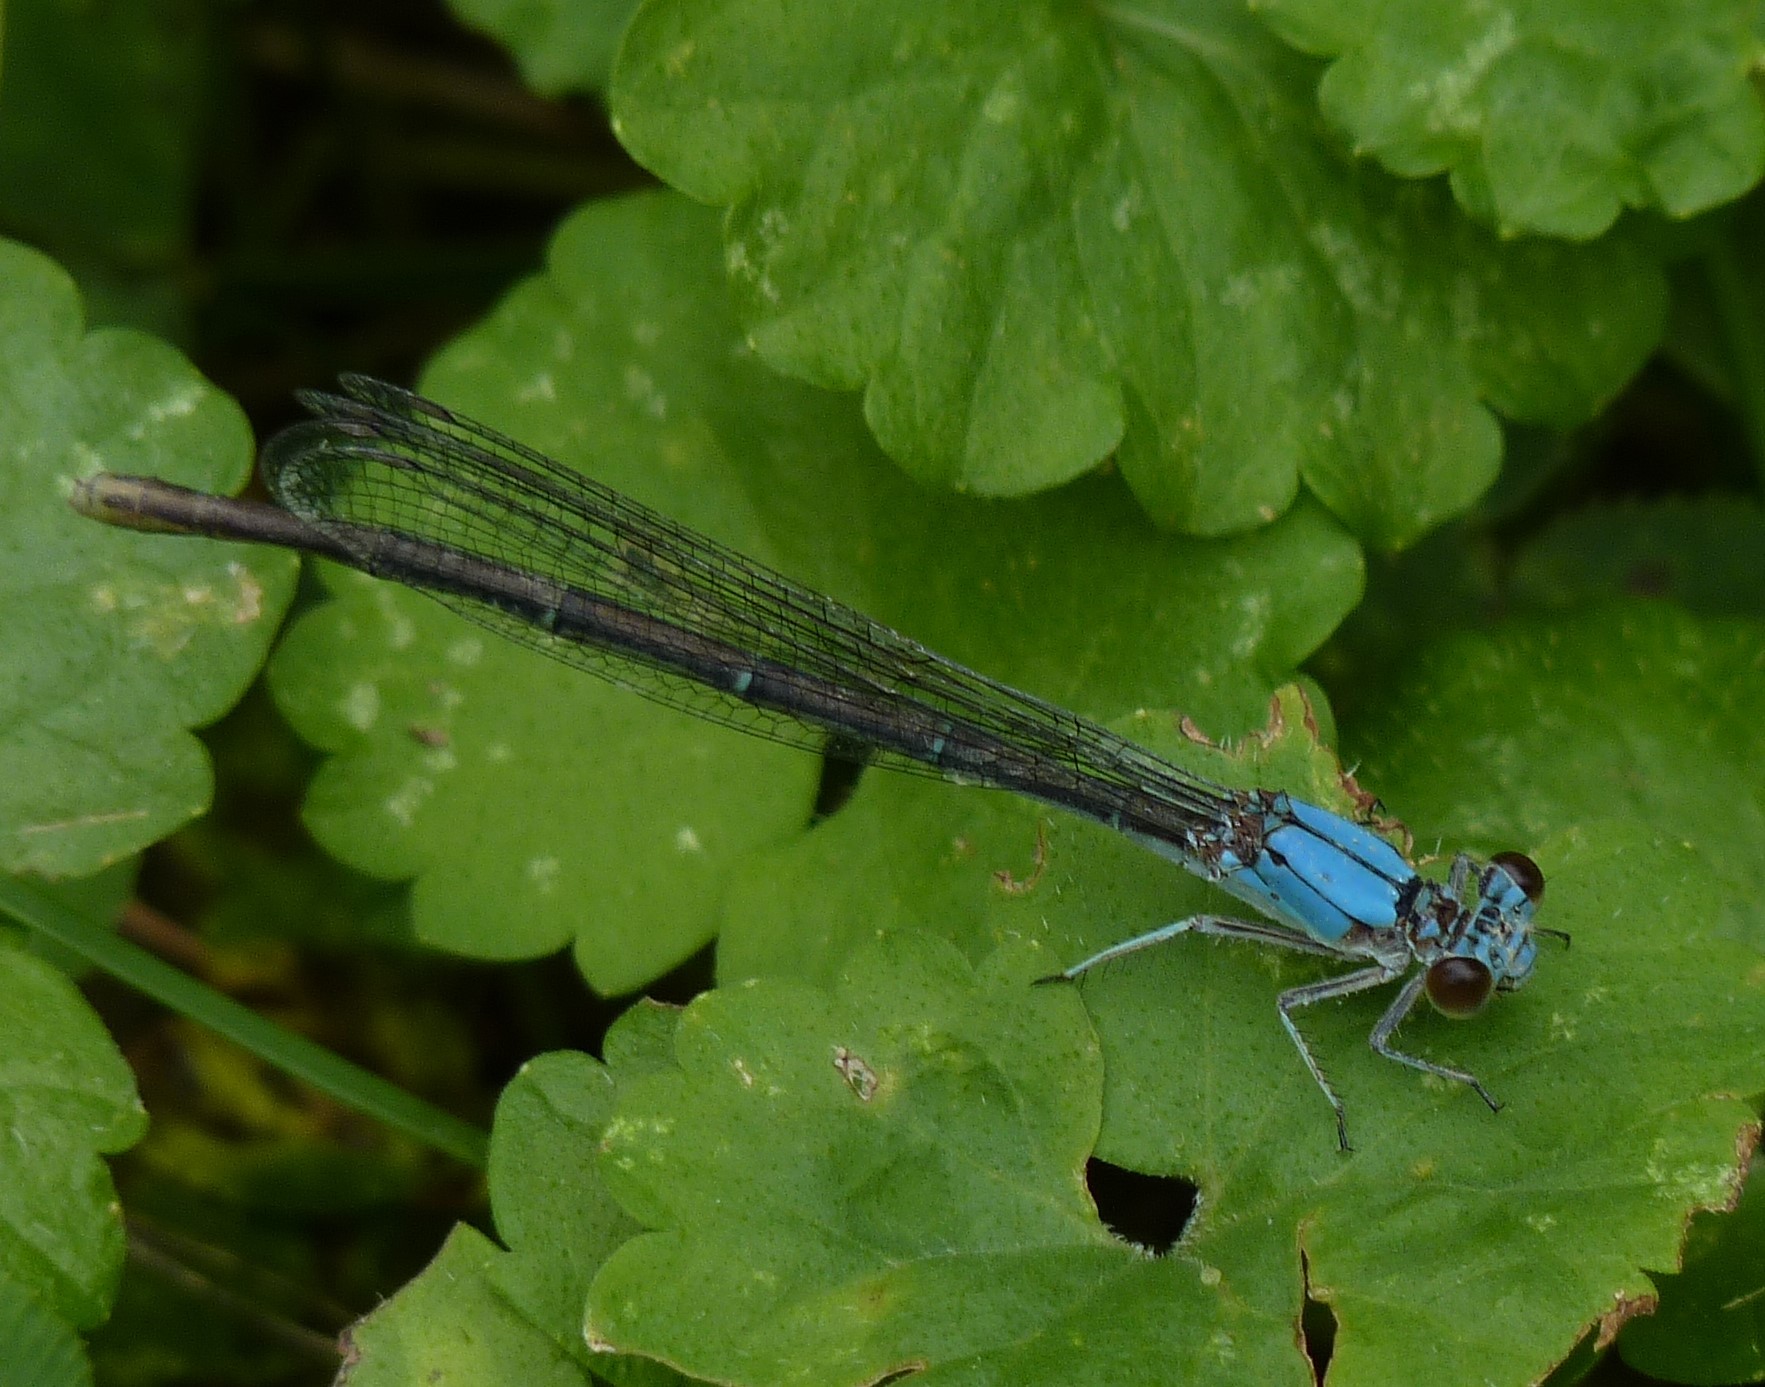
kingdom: Animalia
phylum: Arthropoda
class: Insecta
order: Odonata
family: Coenagrionidae
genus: Argia
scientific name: Argia moesta
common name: Powdered dancer
